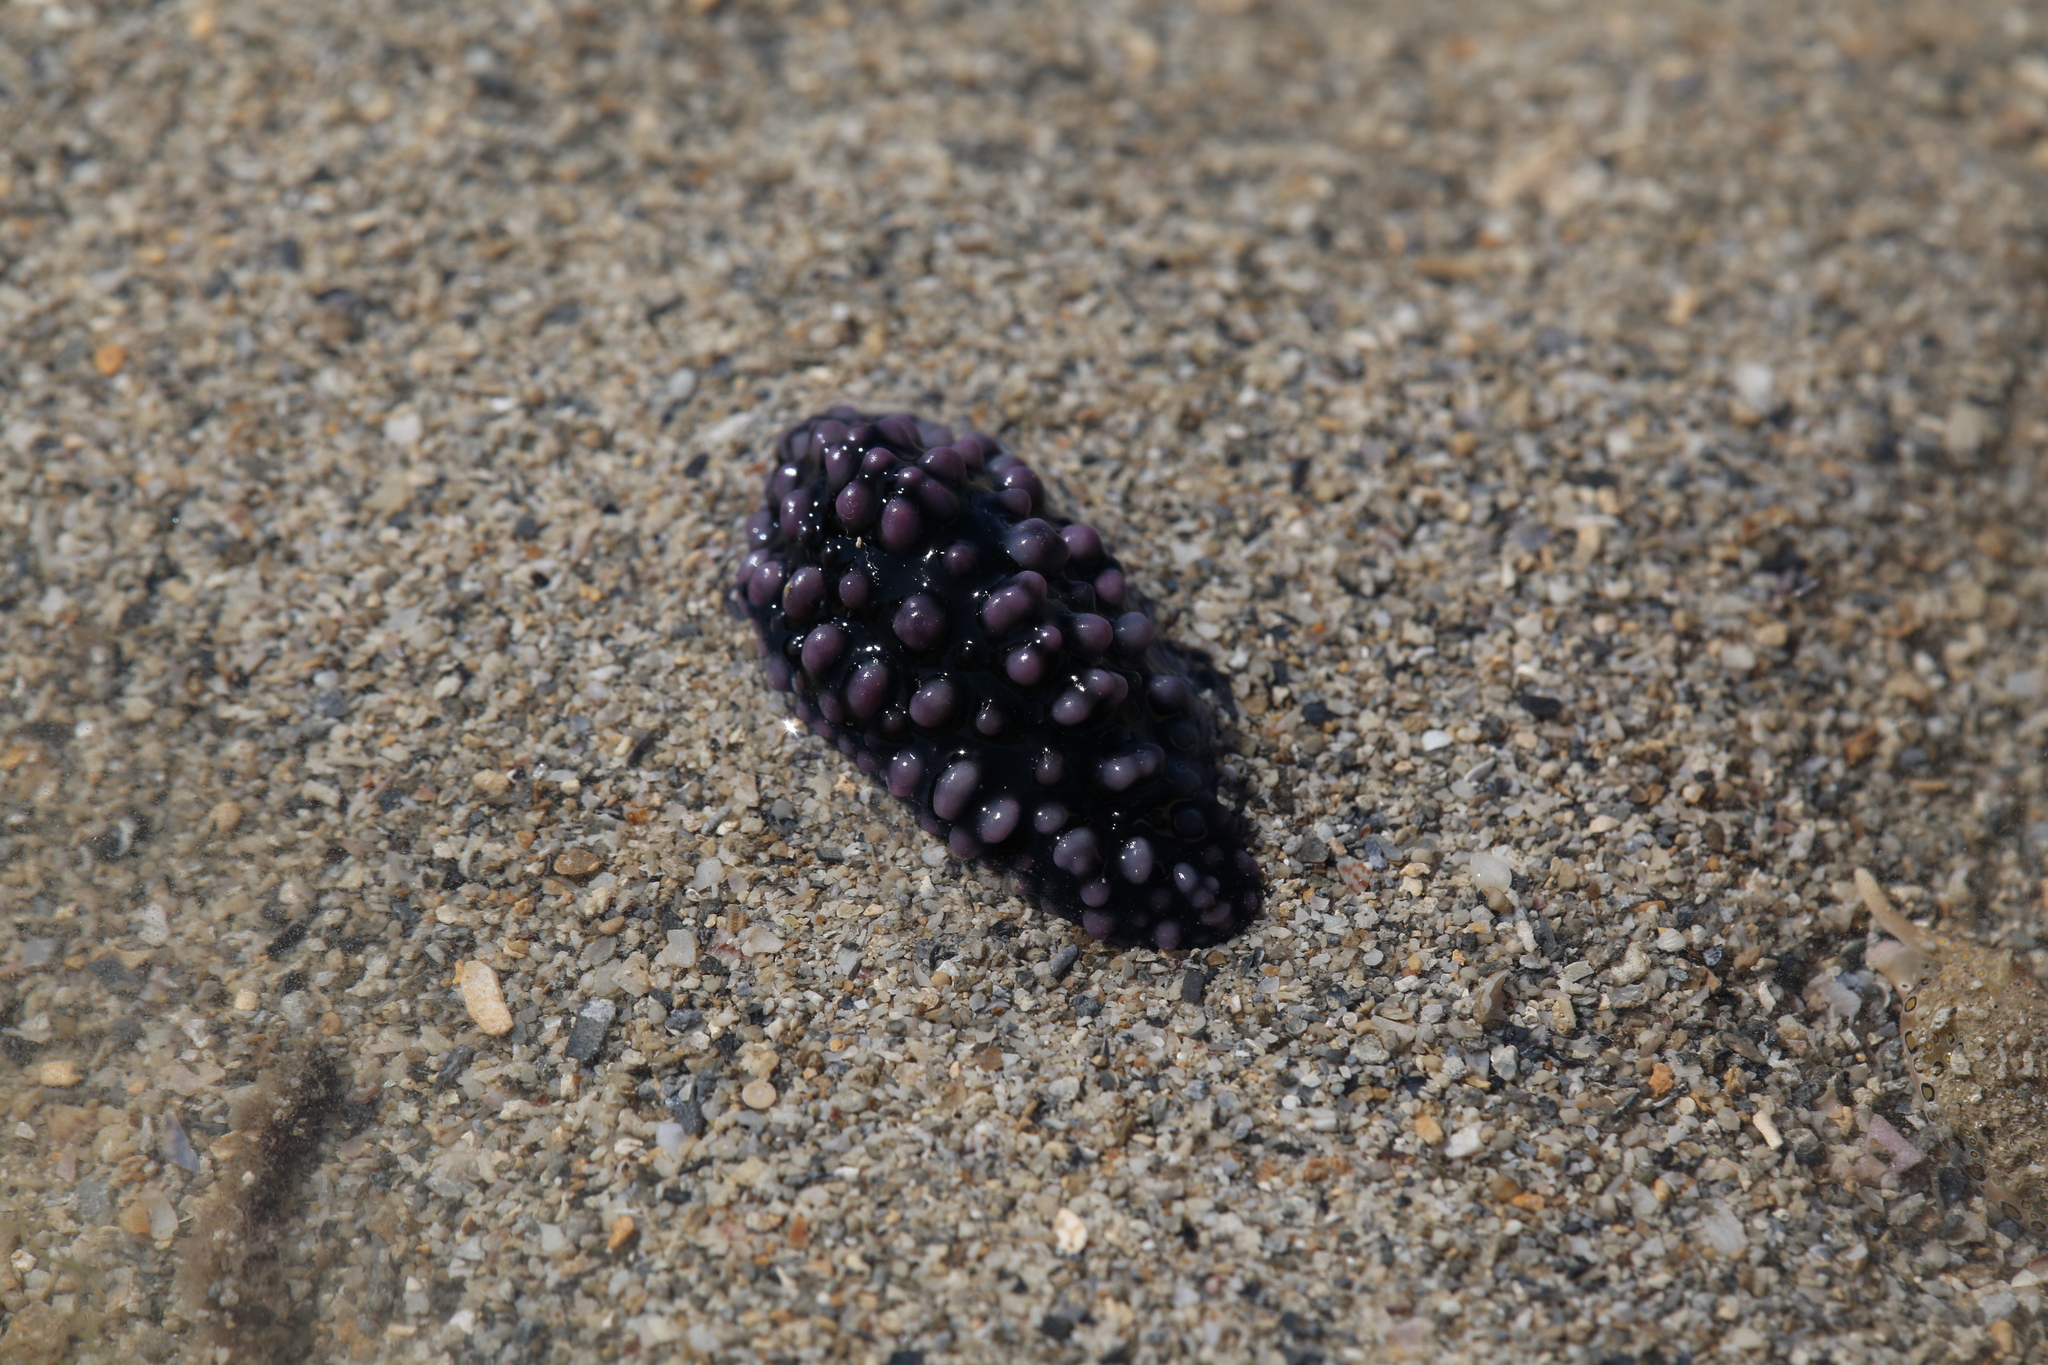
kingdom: Animalia
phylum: Mollusca
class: Gastropoda
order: Nudibranchia
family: Phyllidiidae
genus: Phyllidiella
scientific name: Phyllidiella nigra
